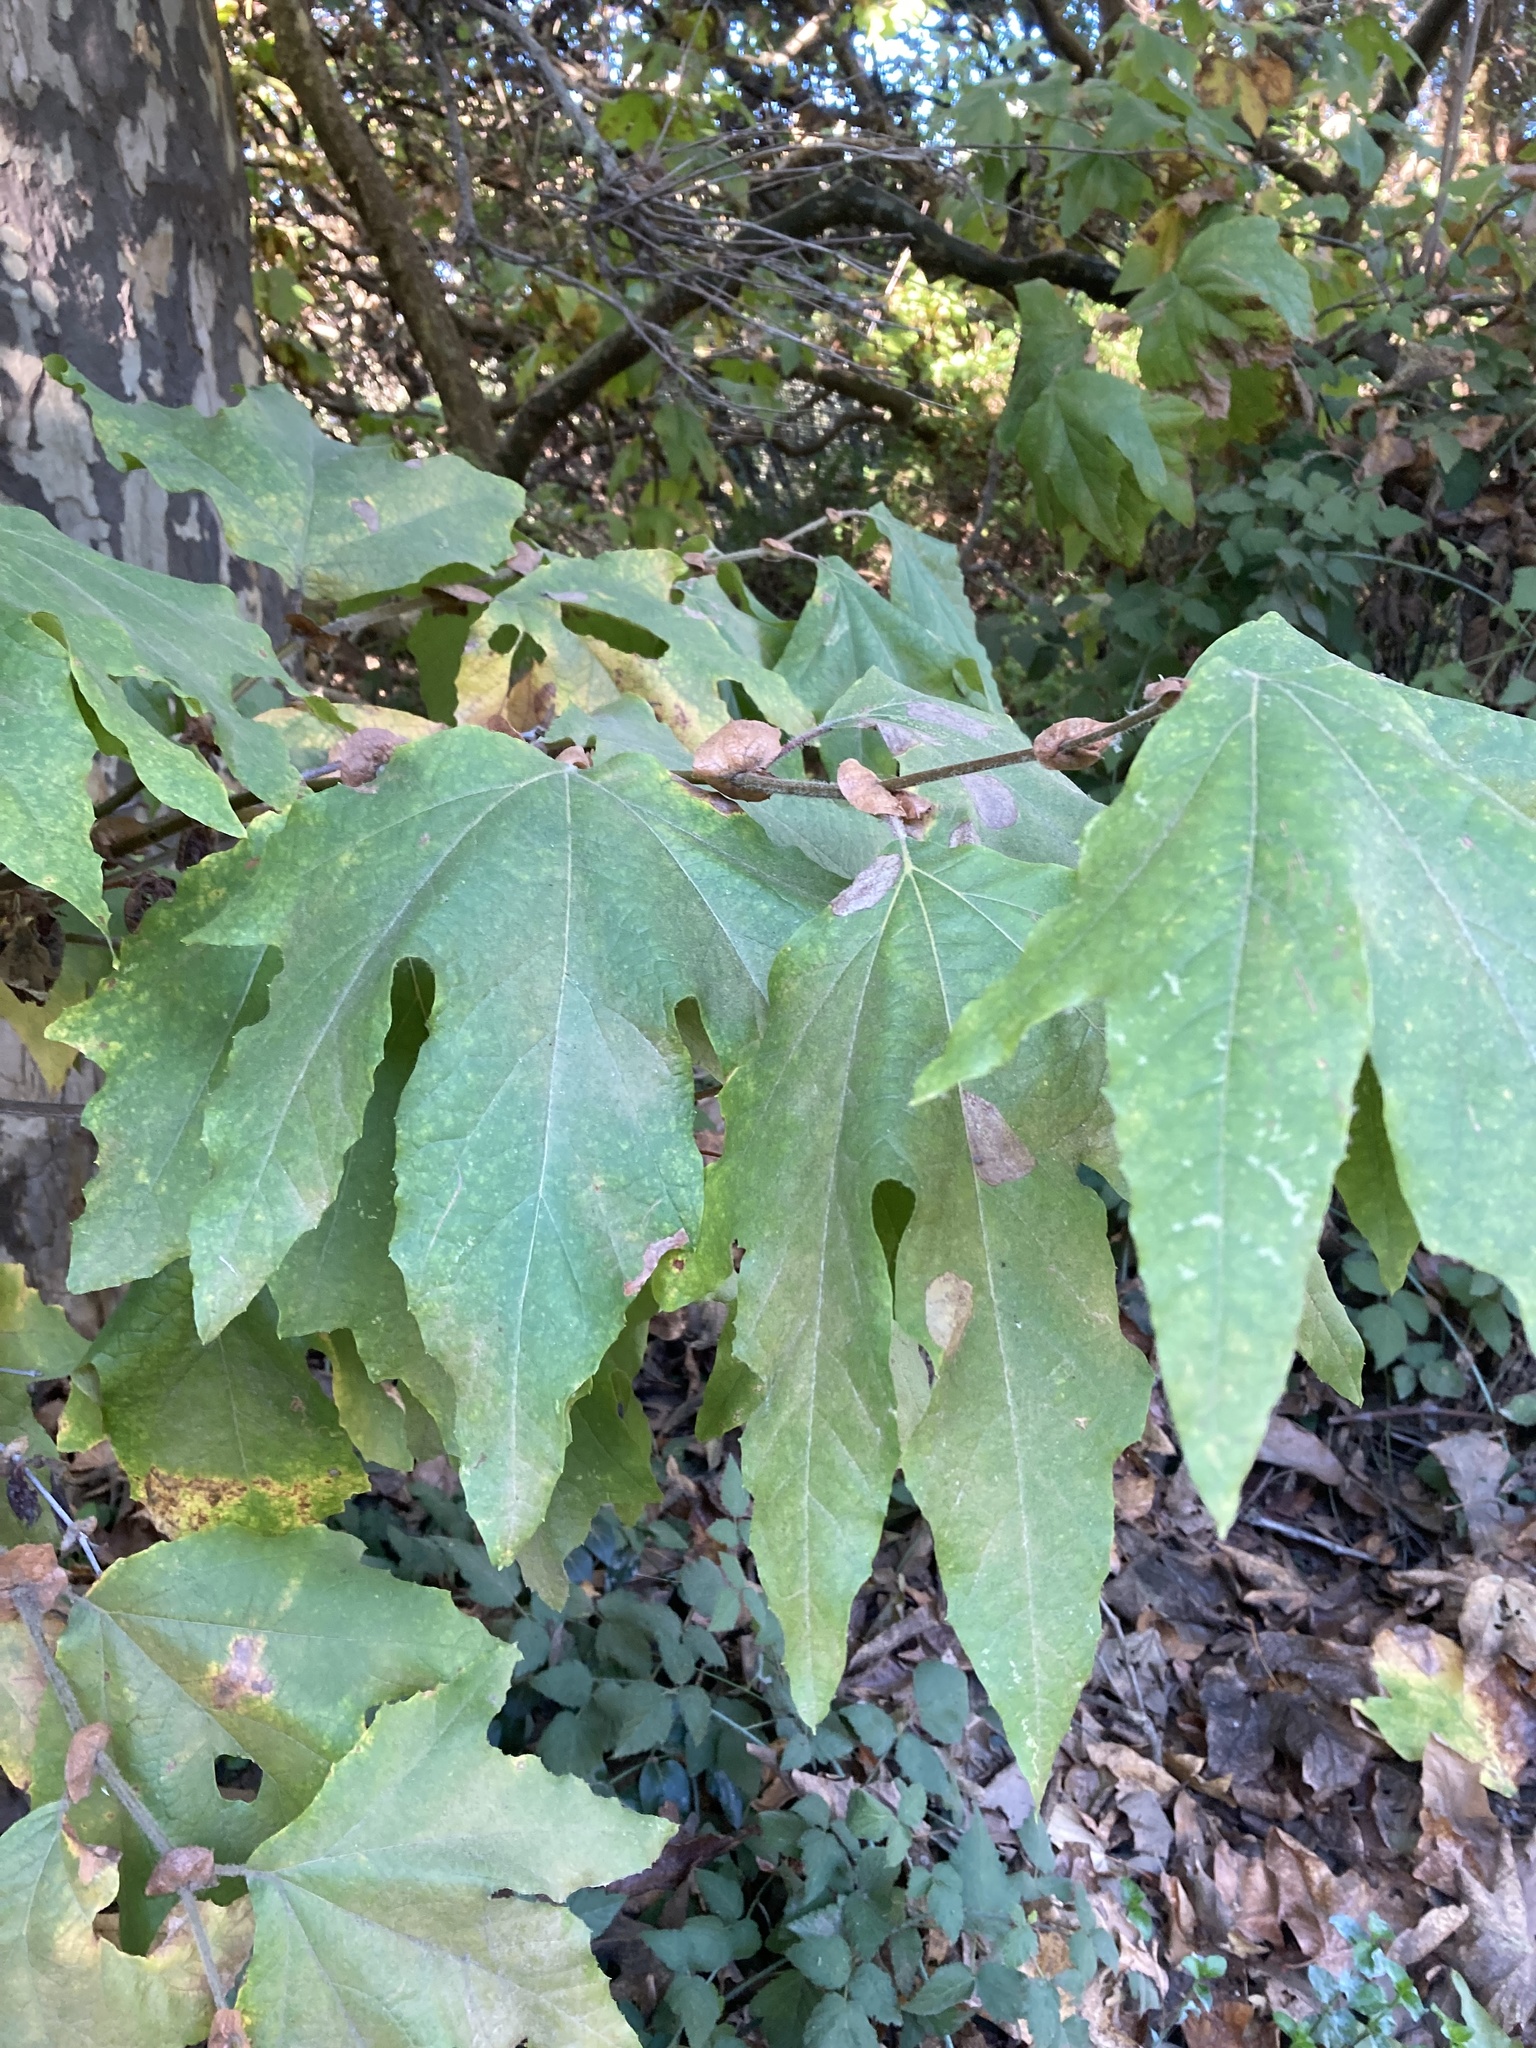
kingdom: Plantae
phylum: Tracheophyta
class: Magnoliopsida
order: Proteales
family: Platanaceae
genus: Platanus
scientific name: Platanus racemosa
